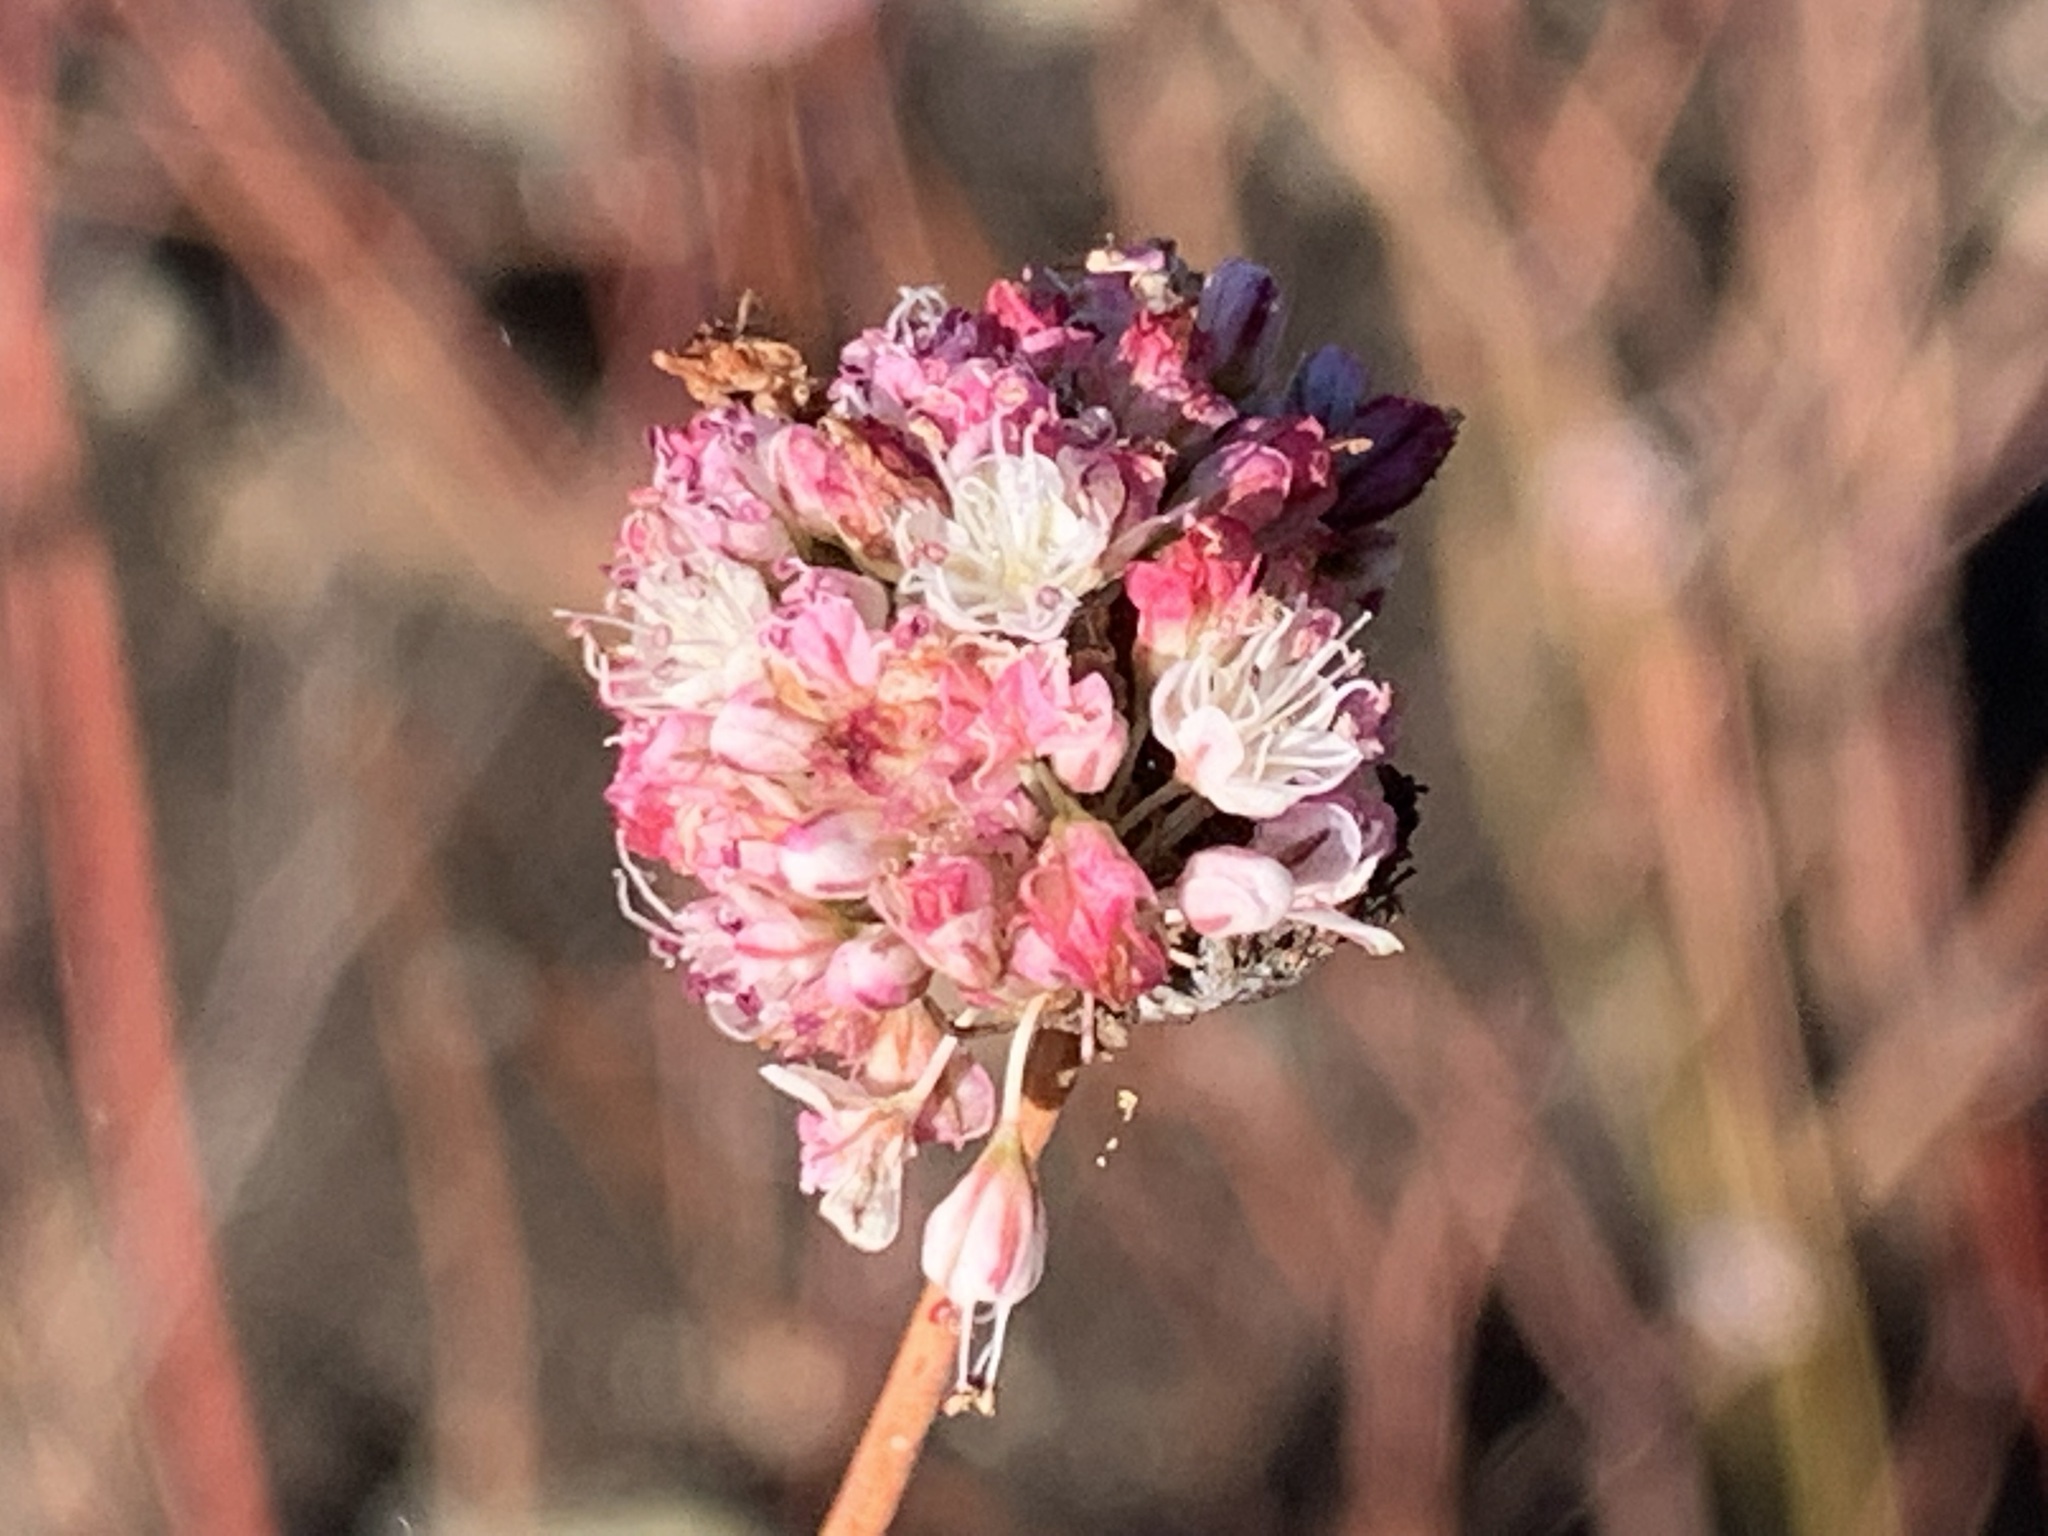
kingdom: Plantae
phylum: Tracheophyta
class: Magnoliopsida
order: Caryophyllales
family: Polygonaceae
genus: Eriogonum
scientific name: Eriogonum nudum
